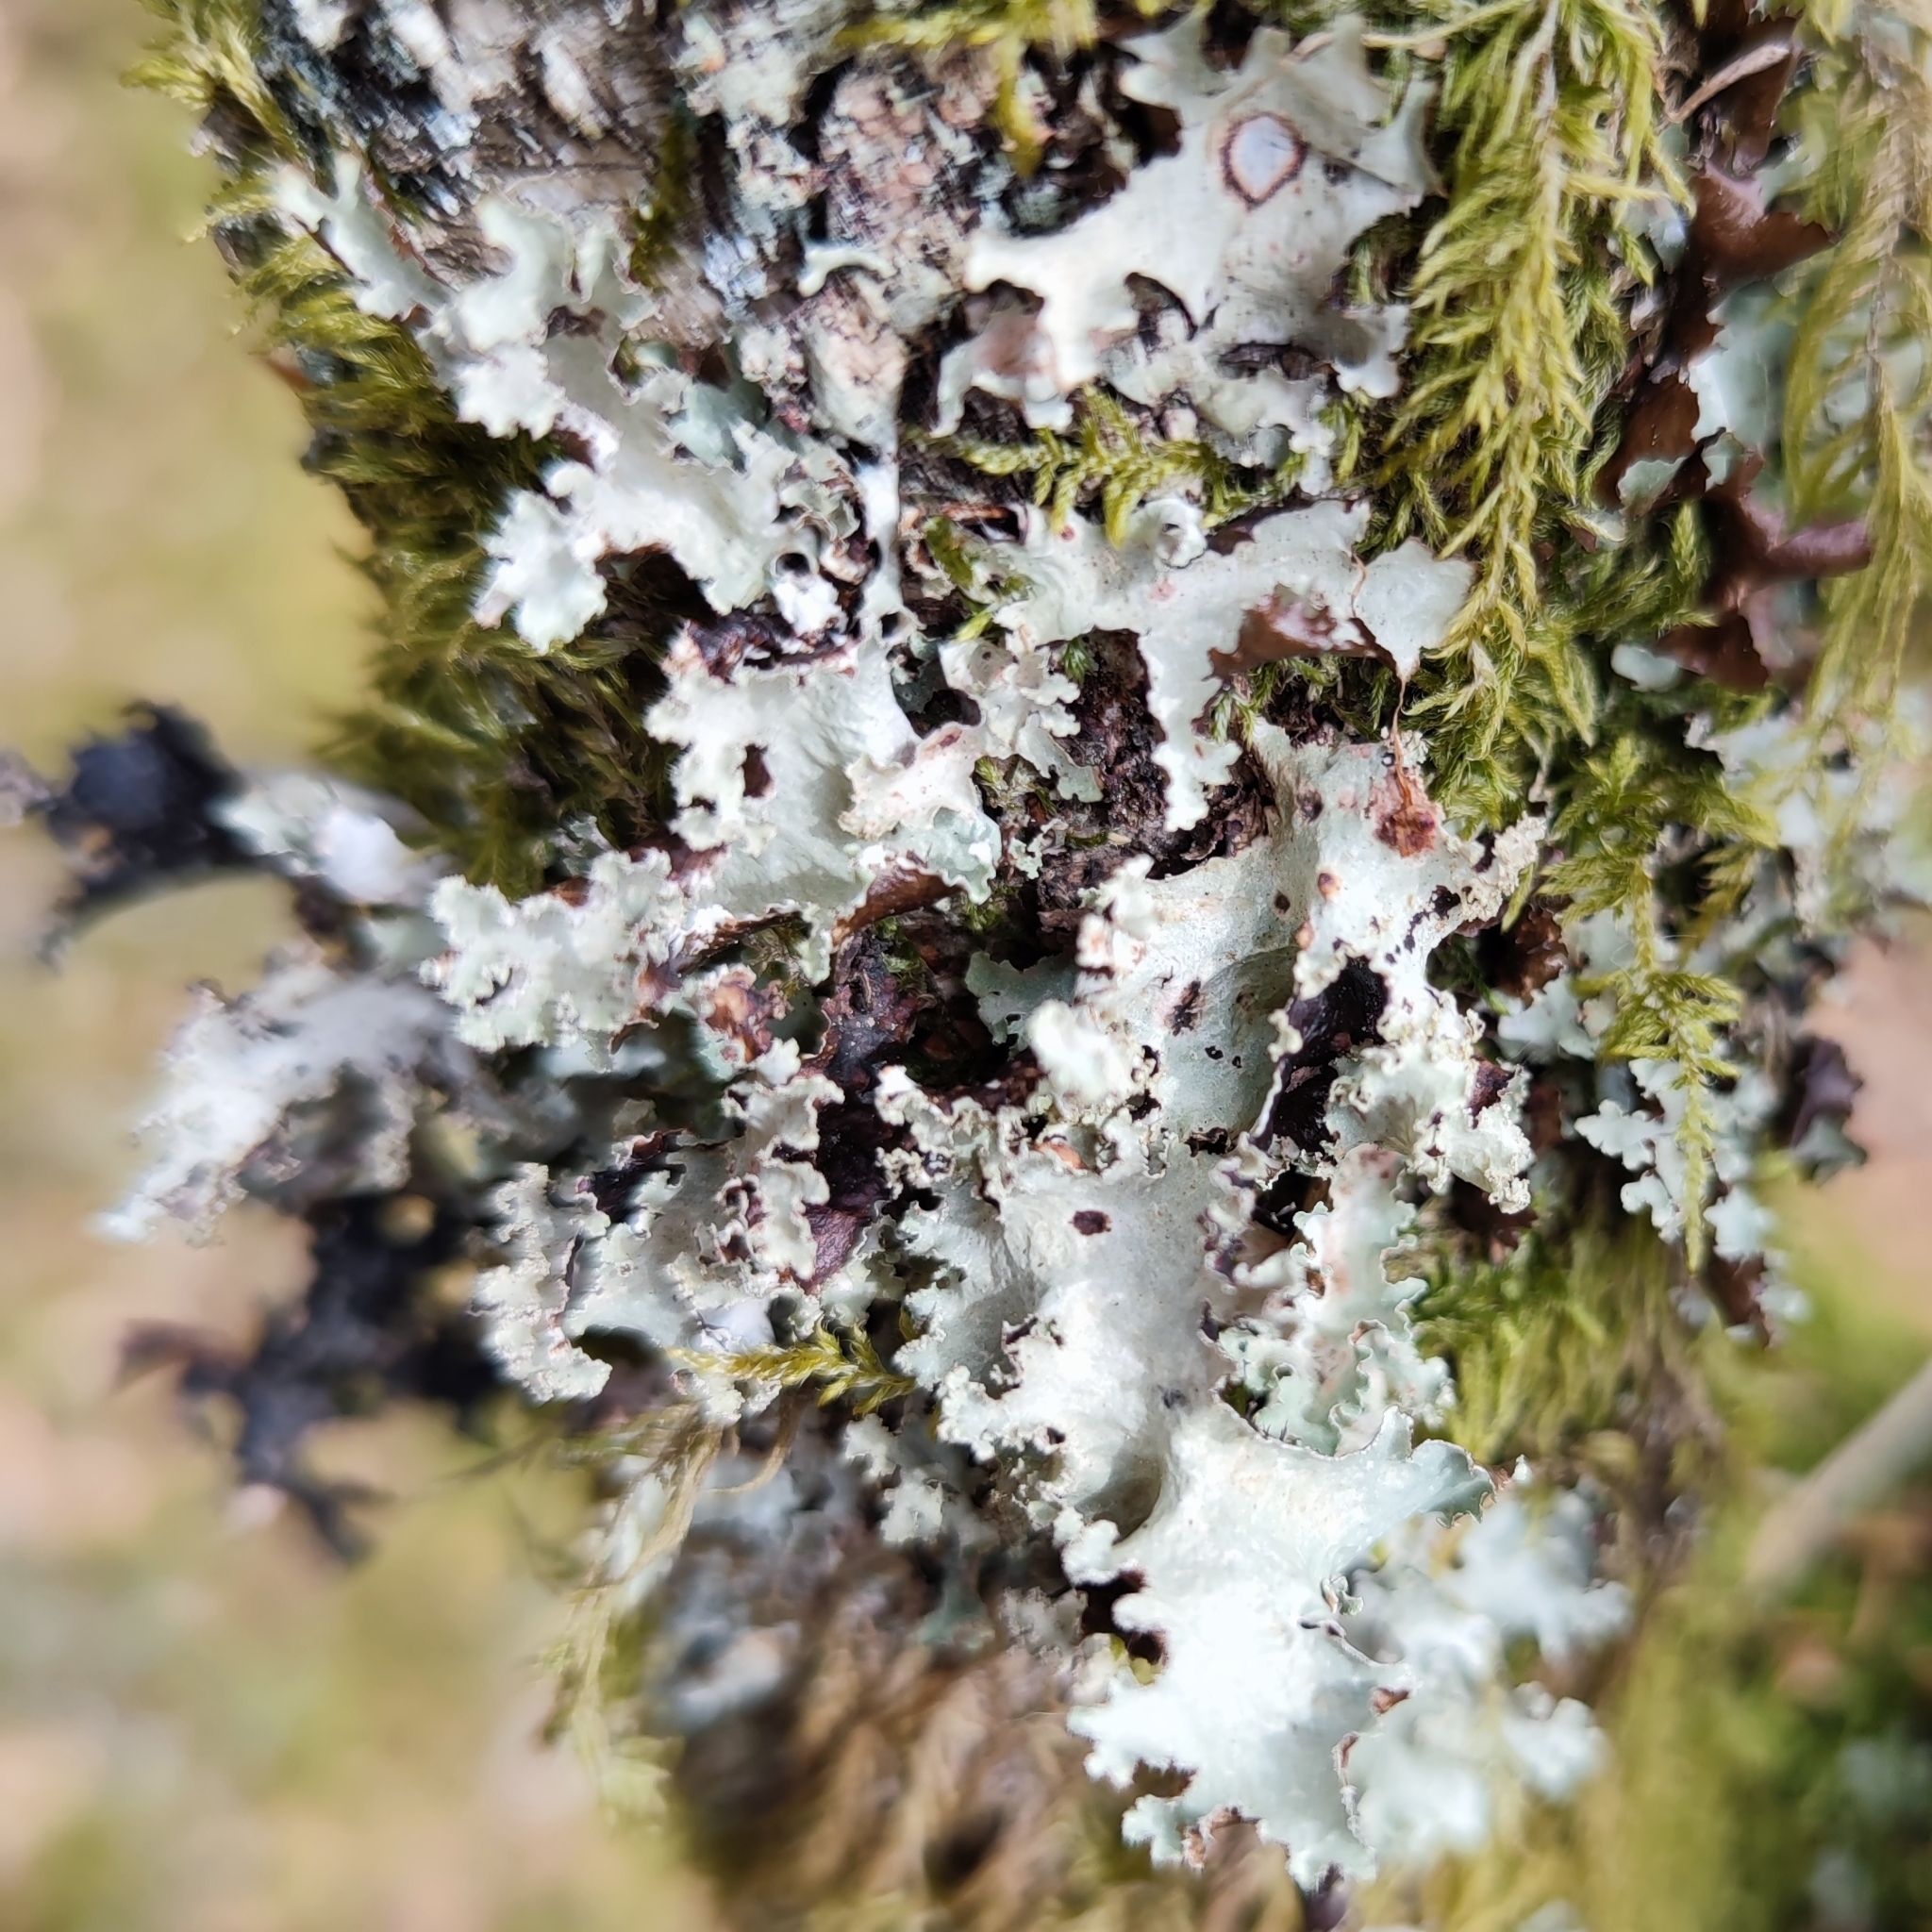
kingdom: Fungi
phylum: Ascomycota
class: Lecanoromycetes
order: Lecanorales
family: Parmeliaceae
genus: Platismatia
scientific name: Platismatia glauca
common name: Varied rag lichen
